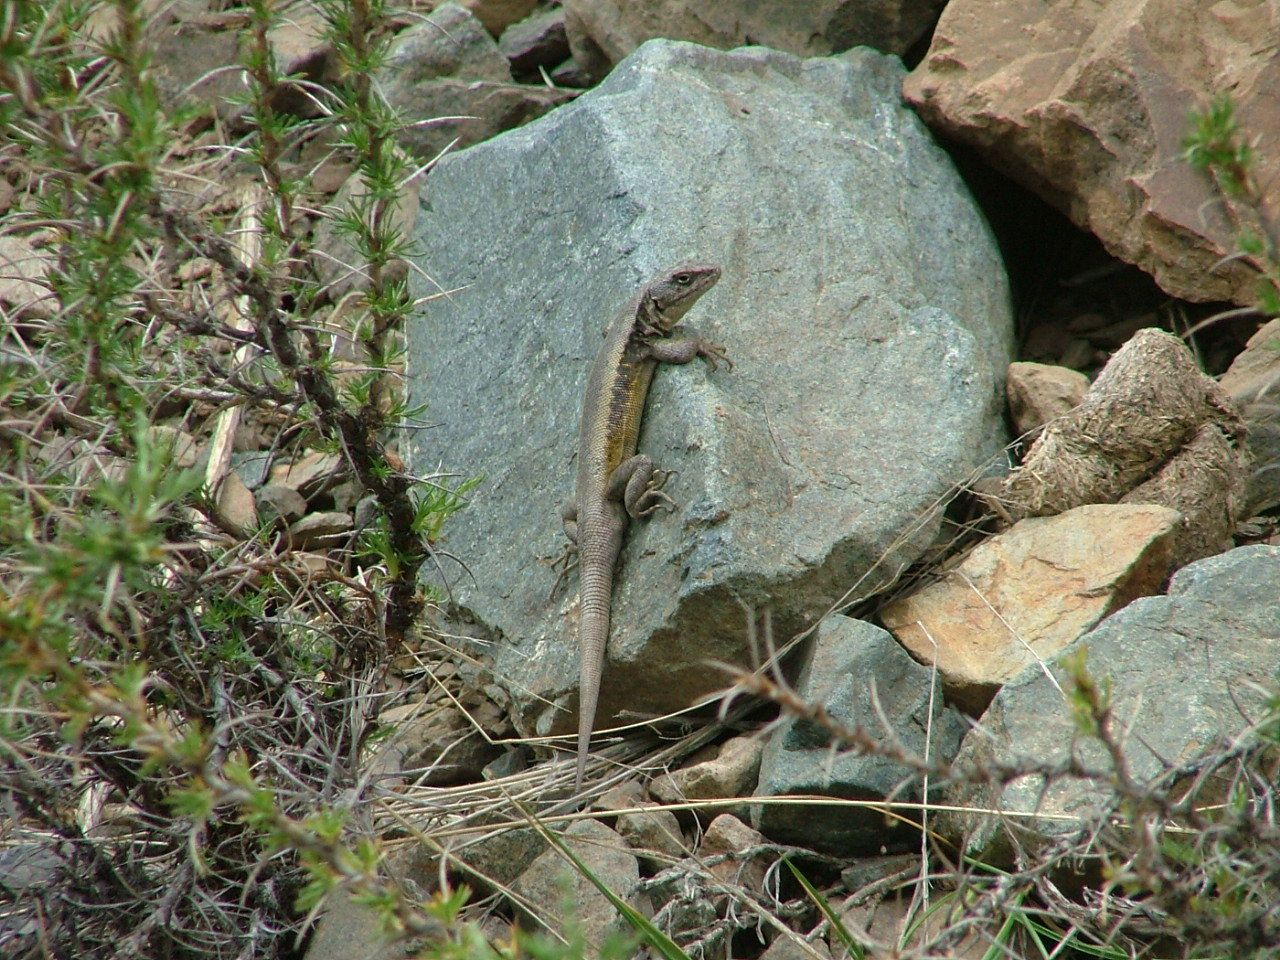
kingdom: Animalia
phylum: Chordata
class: Squamata
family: Liolaemidae
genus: Liolaemus
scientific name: Liolaemus parvus
